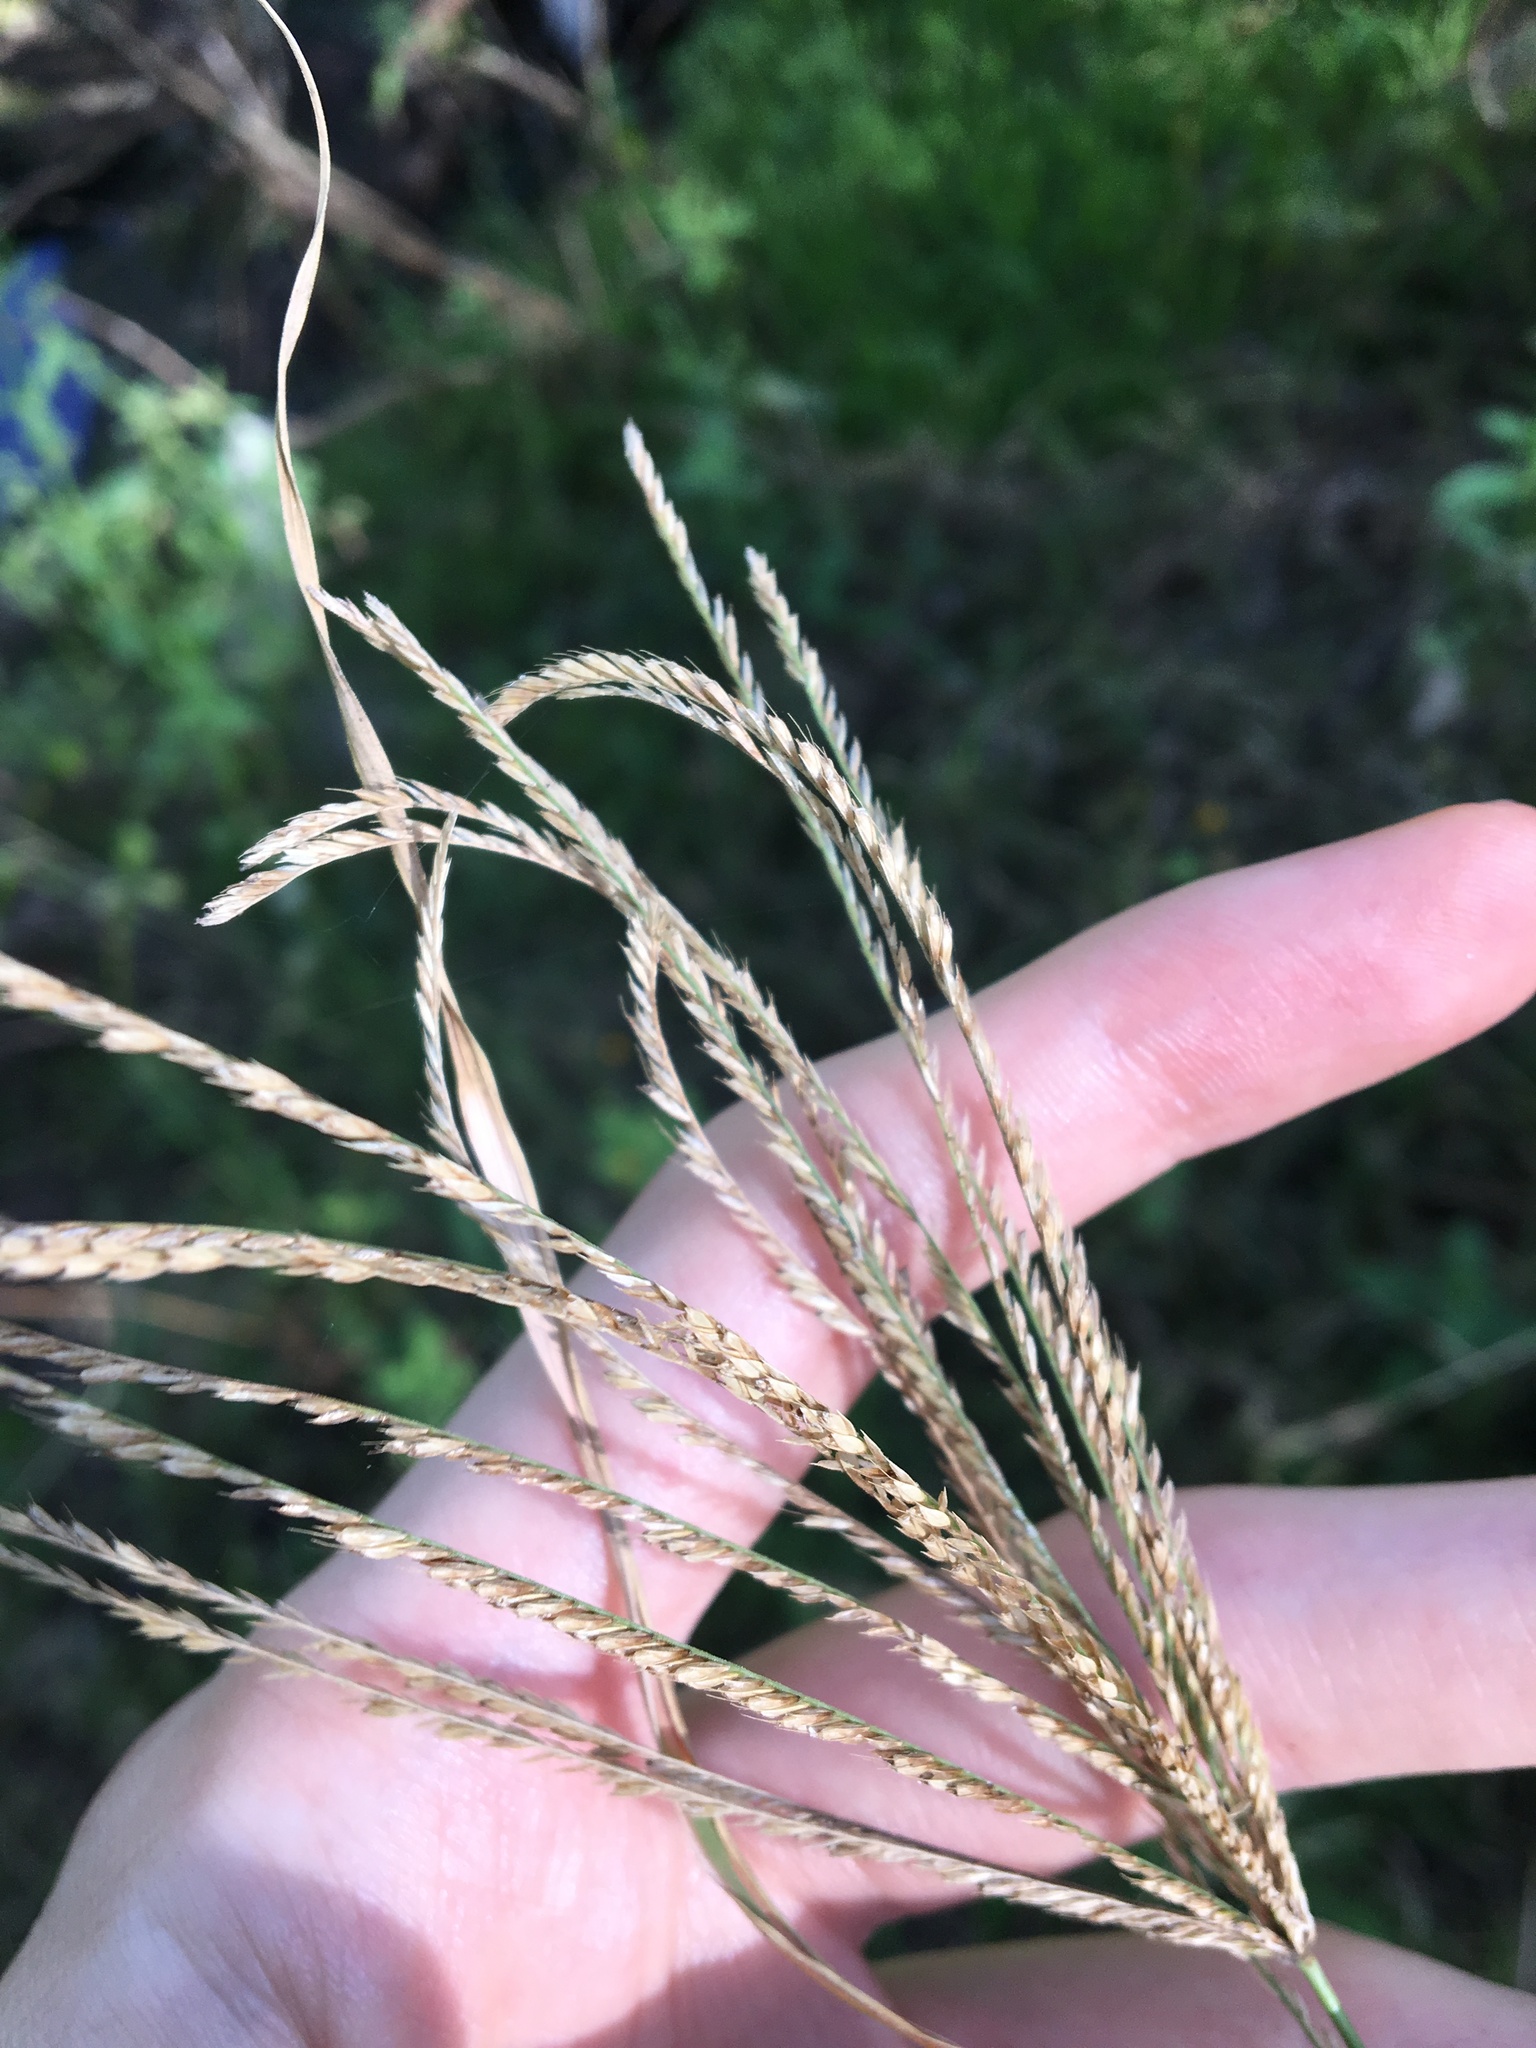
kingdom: Plantae
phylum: Tracheophyta
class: Liliopsida
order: Poales
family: Poaceae
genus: Chloris
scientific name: Chloris gayana
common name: Rhodes grass
